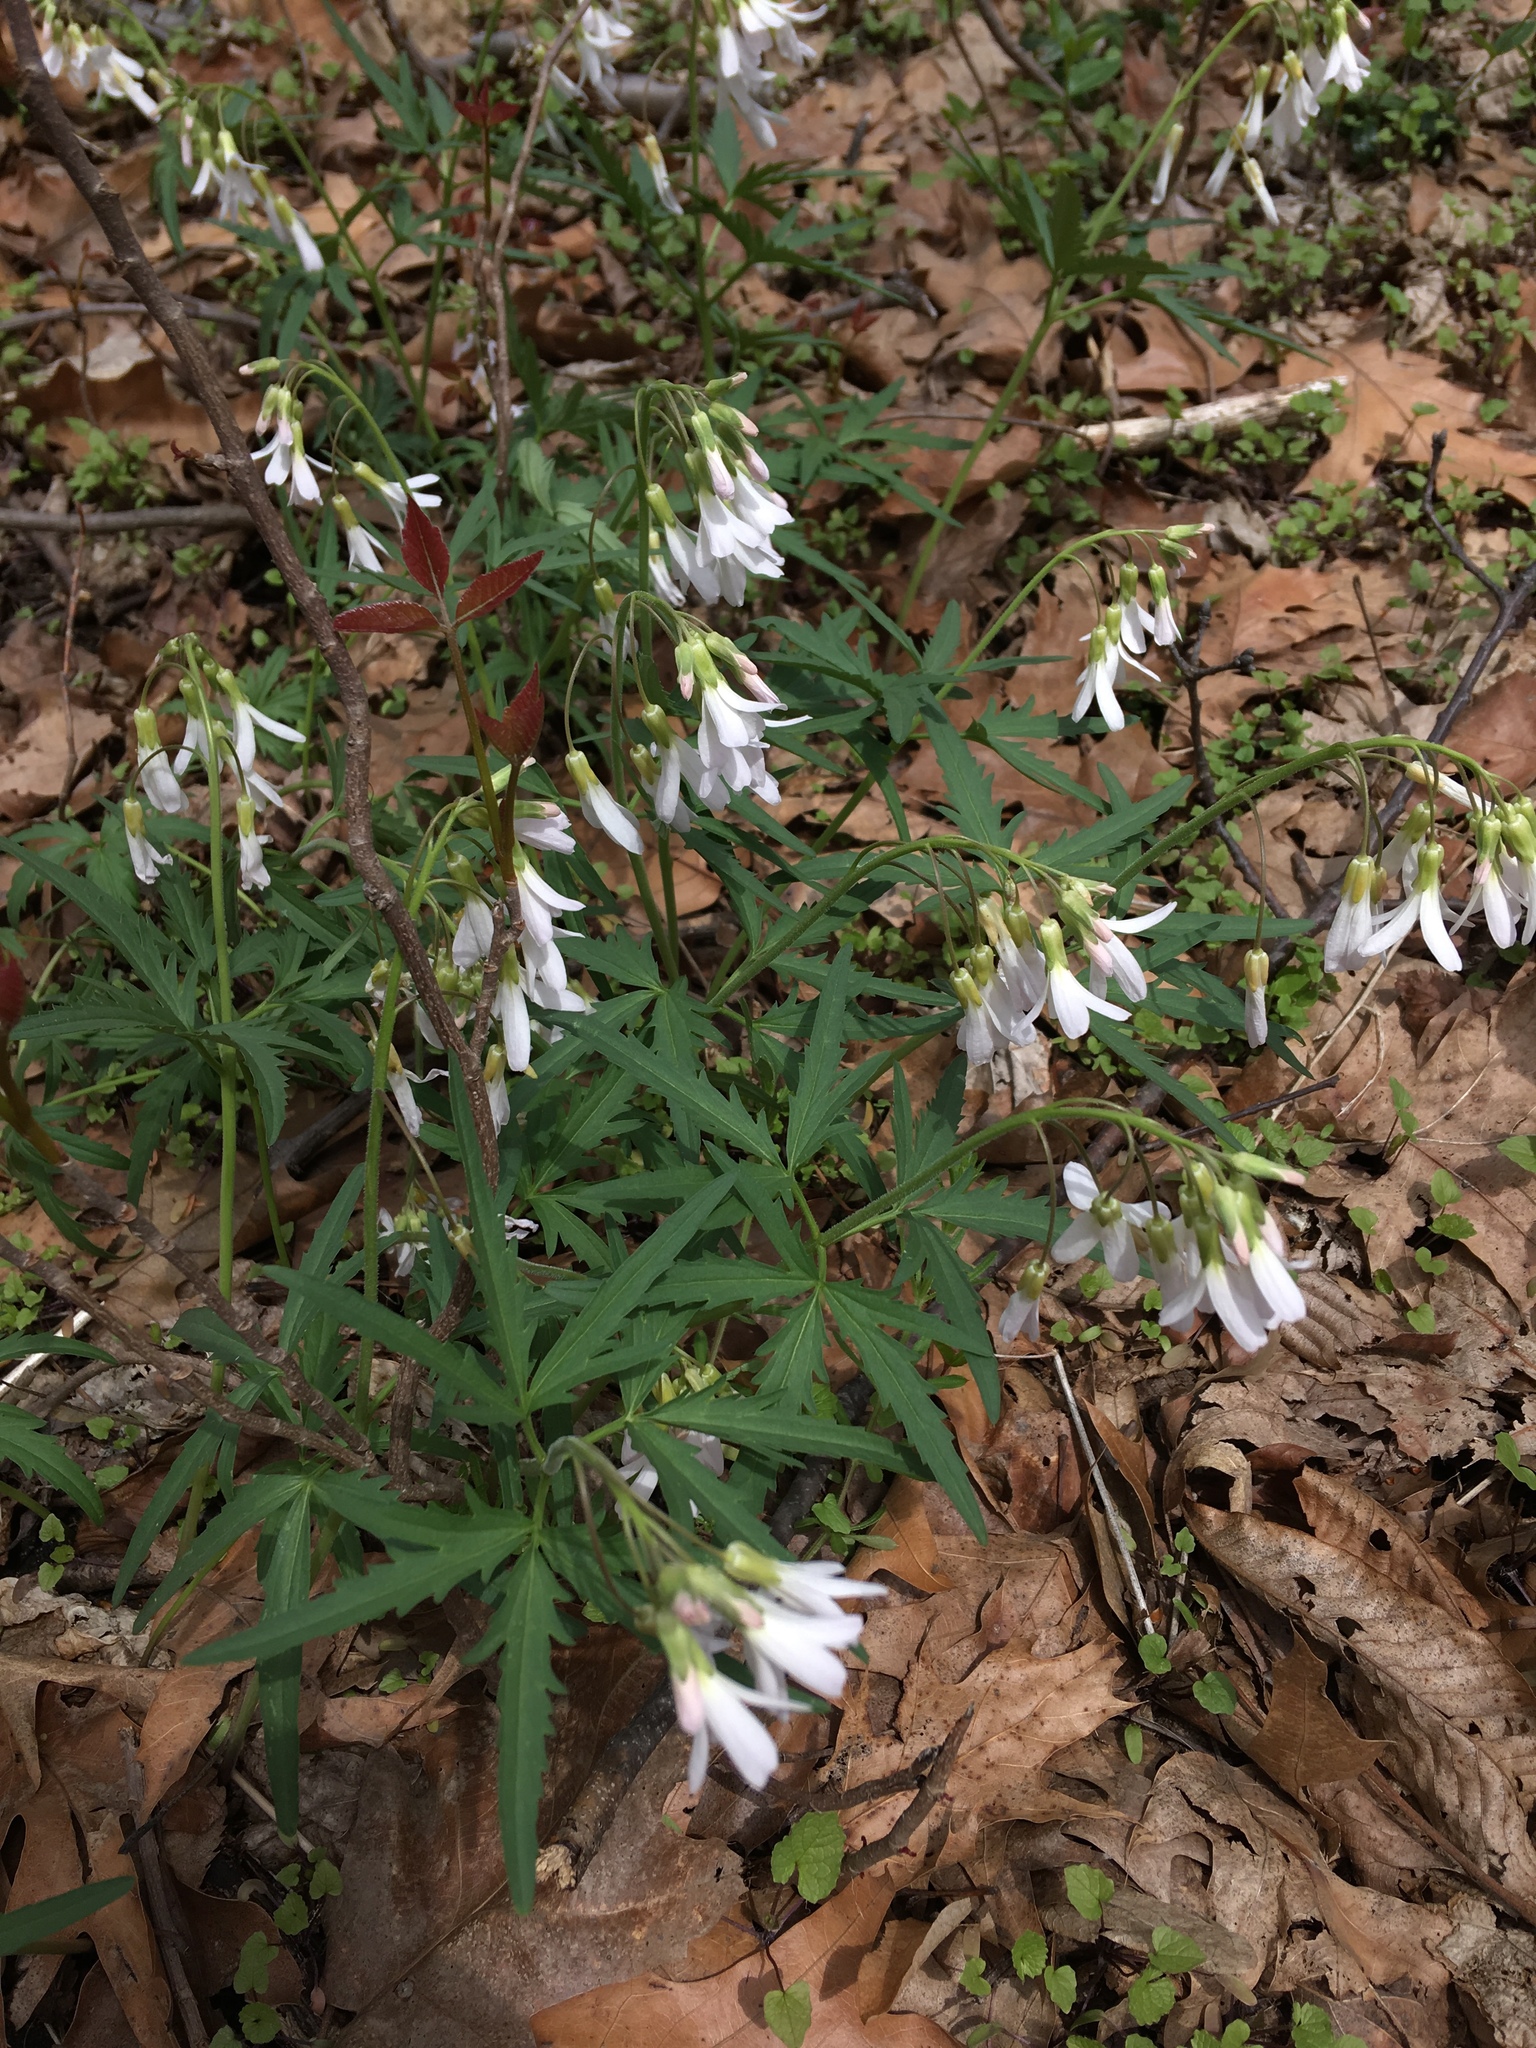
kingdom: Plantae
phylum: Tracheophyta
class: Magnoliopsida
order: Brassicales
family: Brassicaceae
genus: Cardamine
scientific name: Cardamine concatenata
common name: Cut-leaf toothcup
